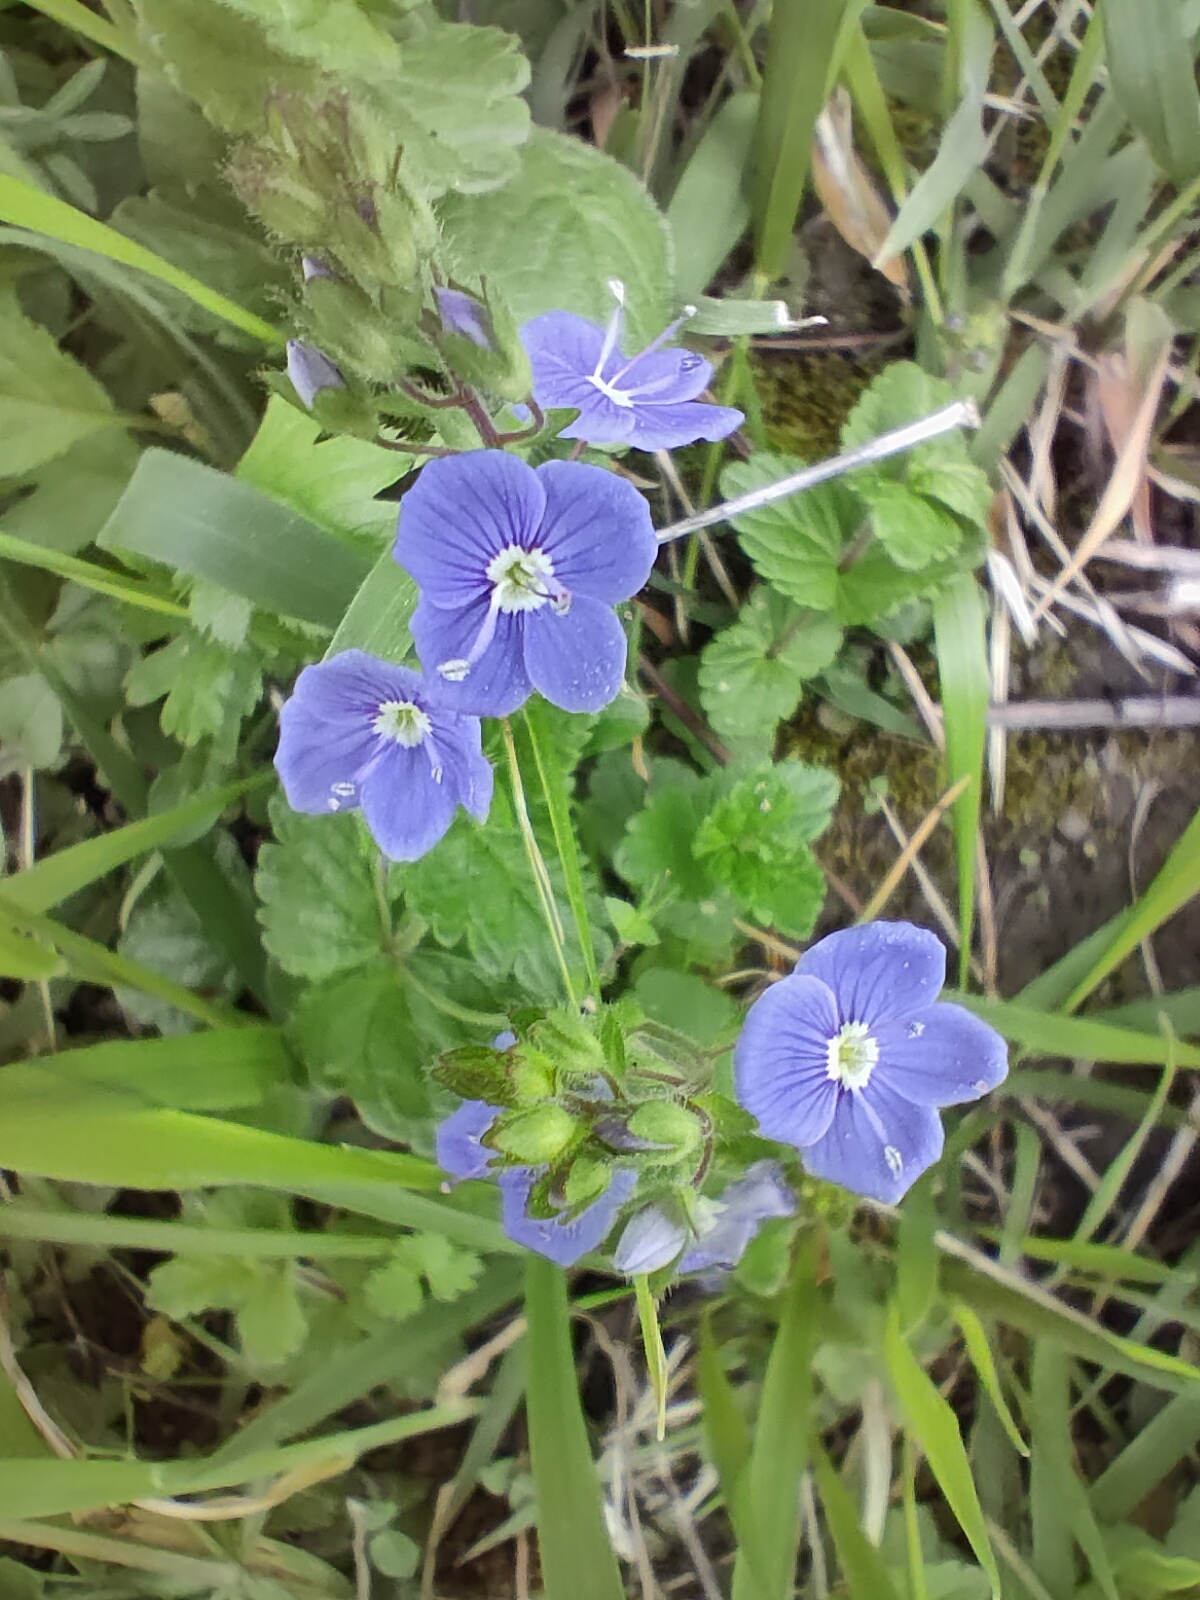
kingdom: Plantae
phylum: Tracheophyta
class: Magnoliopsida
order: Lamiales
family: Plantaginaceae
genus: Veronica
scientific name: Veronica chamaedrys
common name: Germander speedwell
